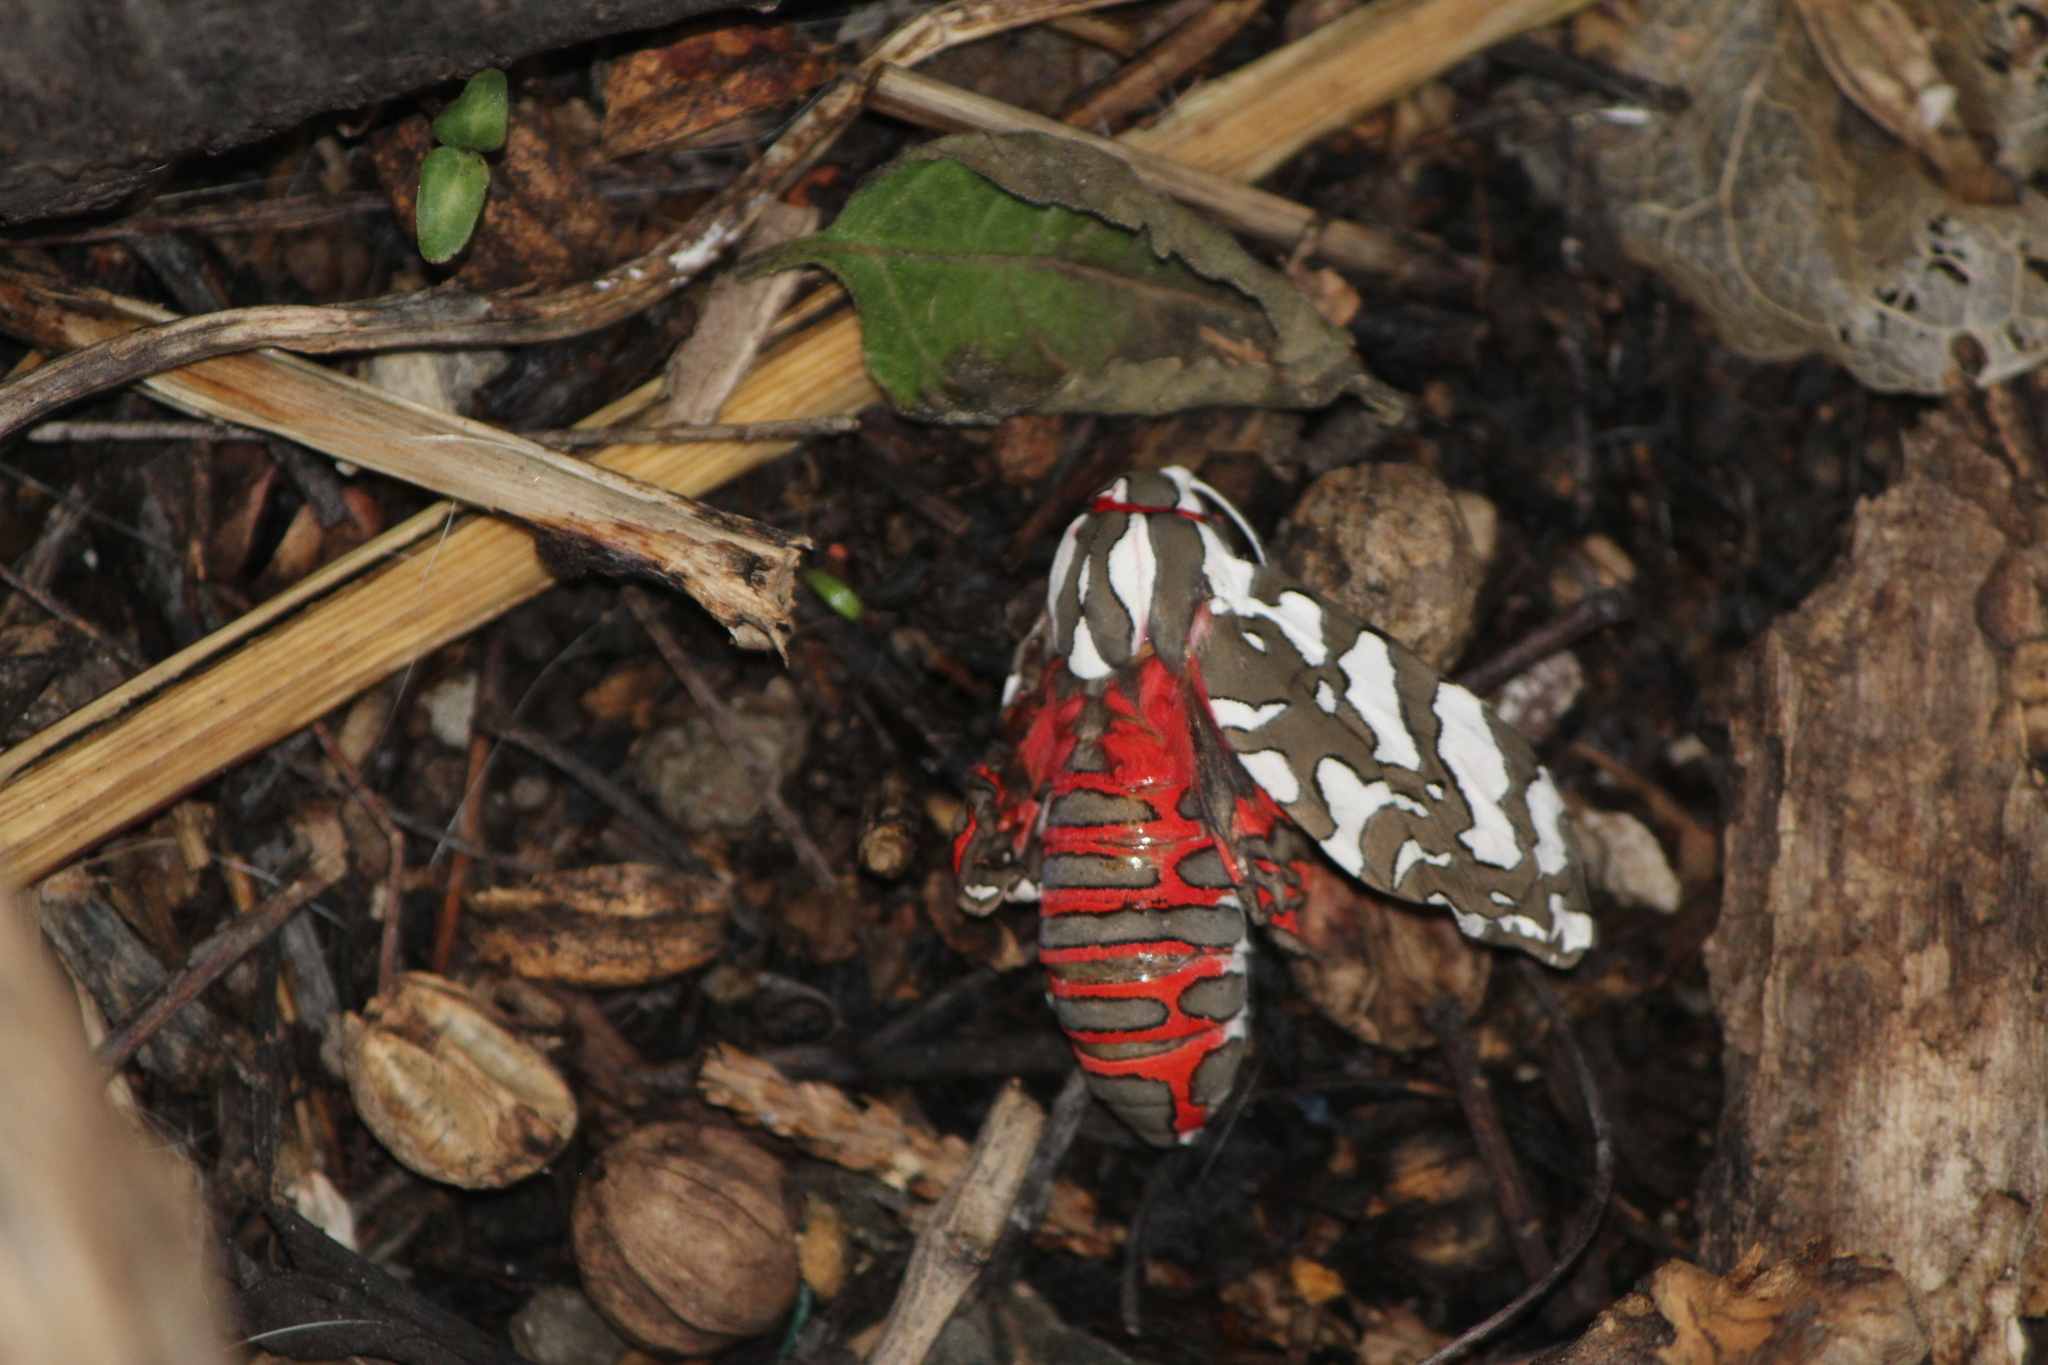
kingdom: Animalia
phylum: Arthropoda
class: Insecta
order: Lepidoptera
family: Erebidae
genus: Arachnis
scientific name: Arachnis dilecta
